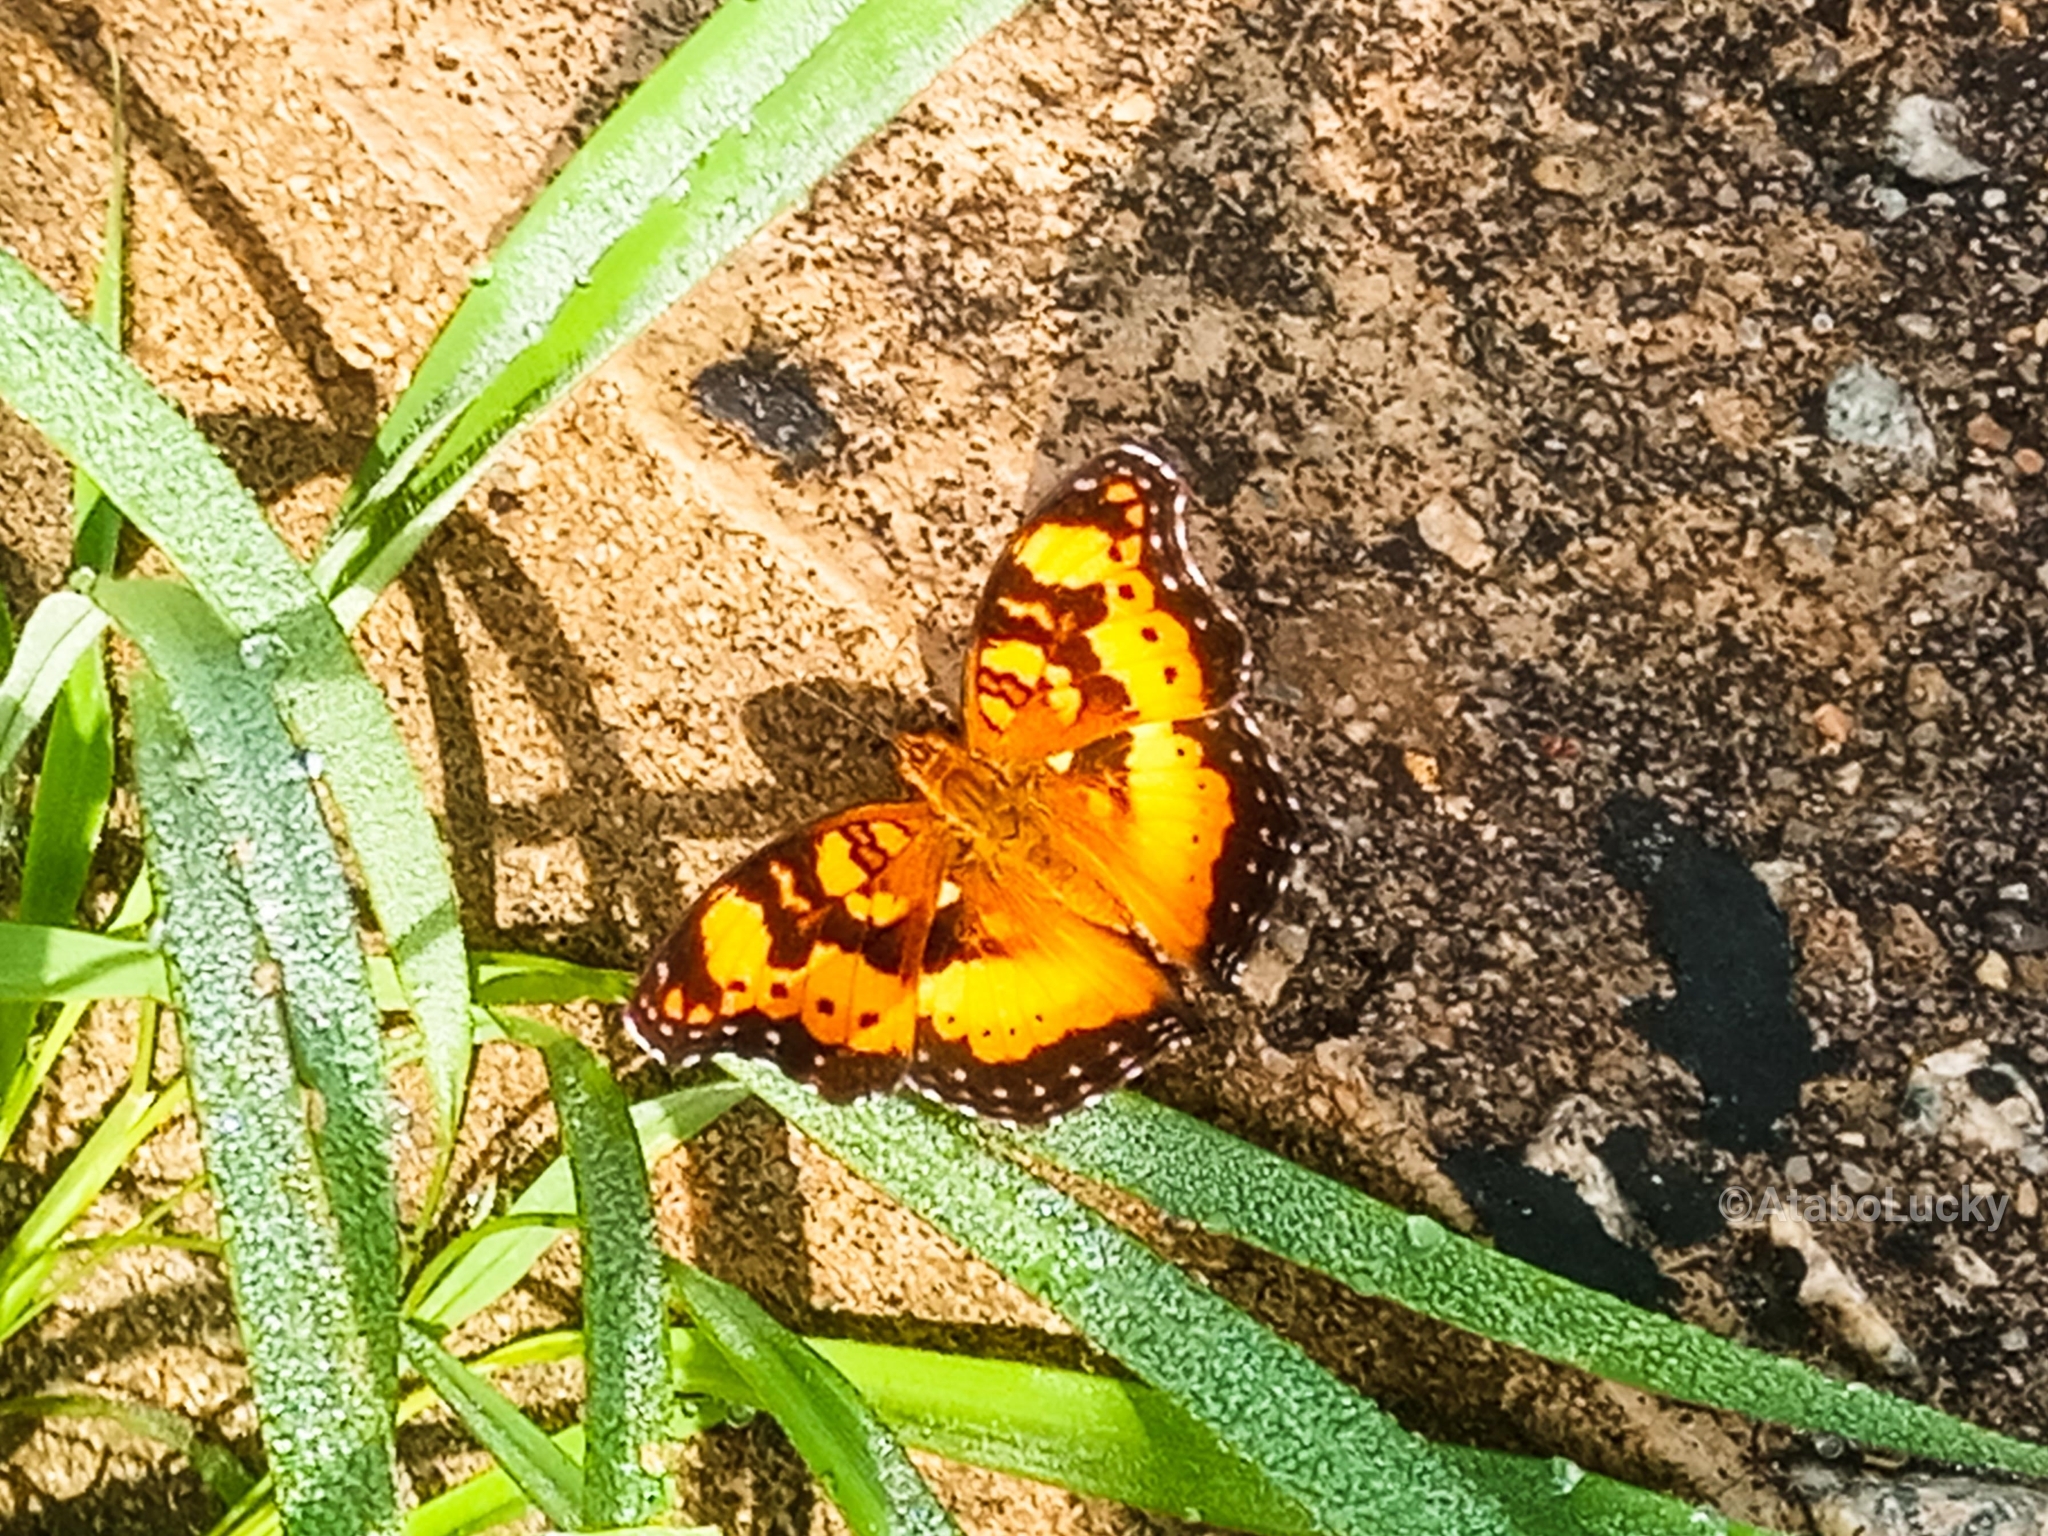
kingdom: Animalia
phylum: Arthropoda
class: Insecta
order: Lepidoptera
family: Nymphalidae
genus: Junonia
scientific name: Junonia antilope
